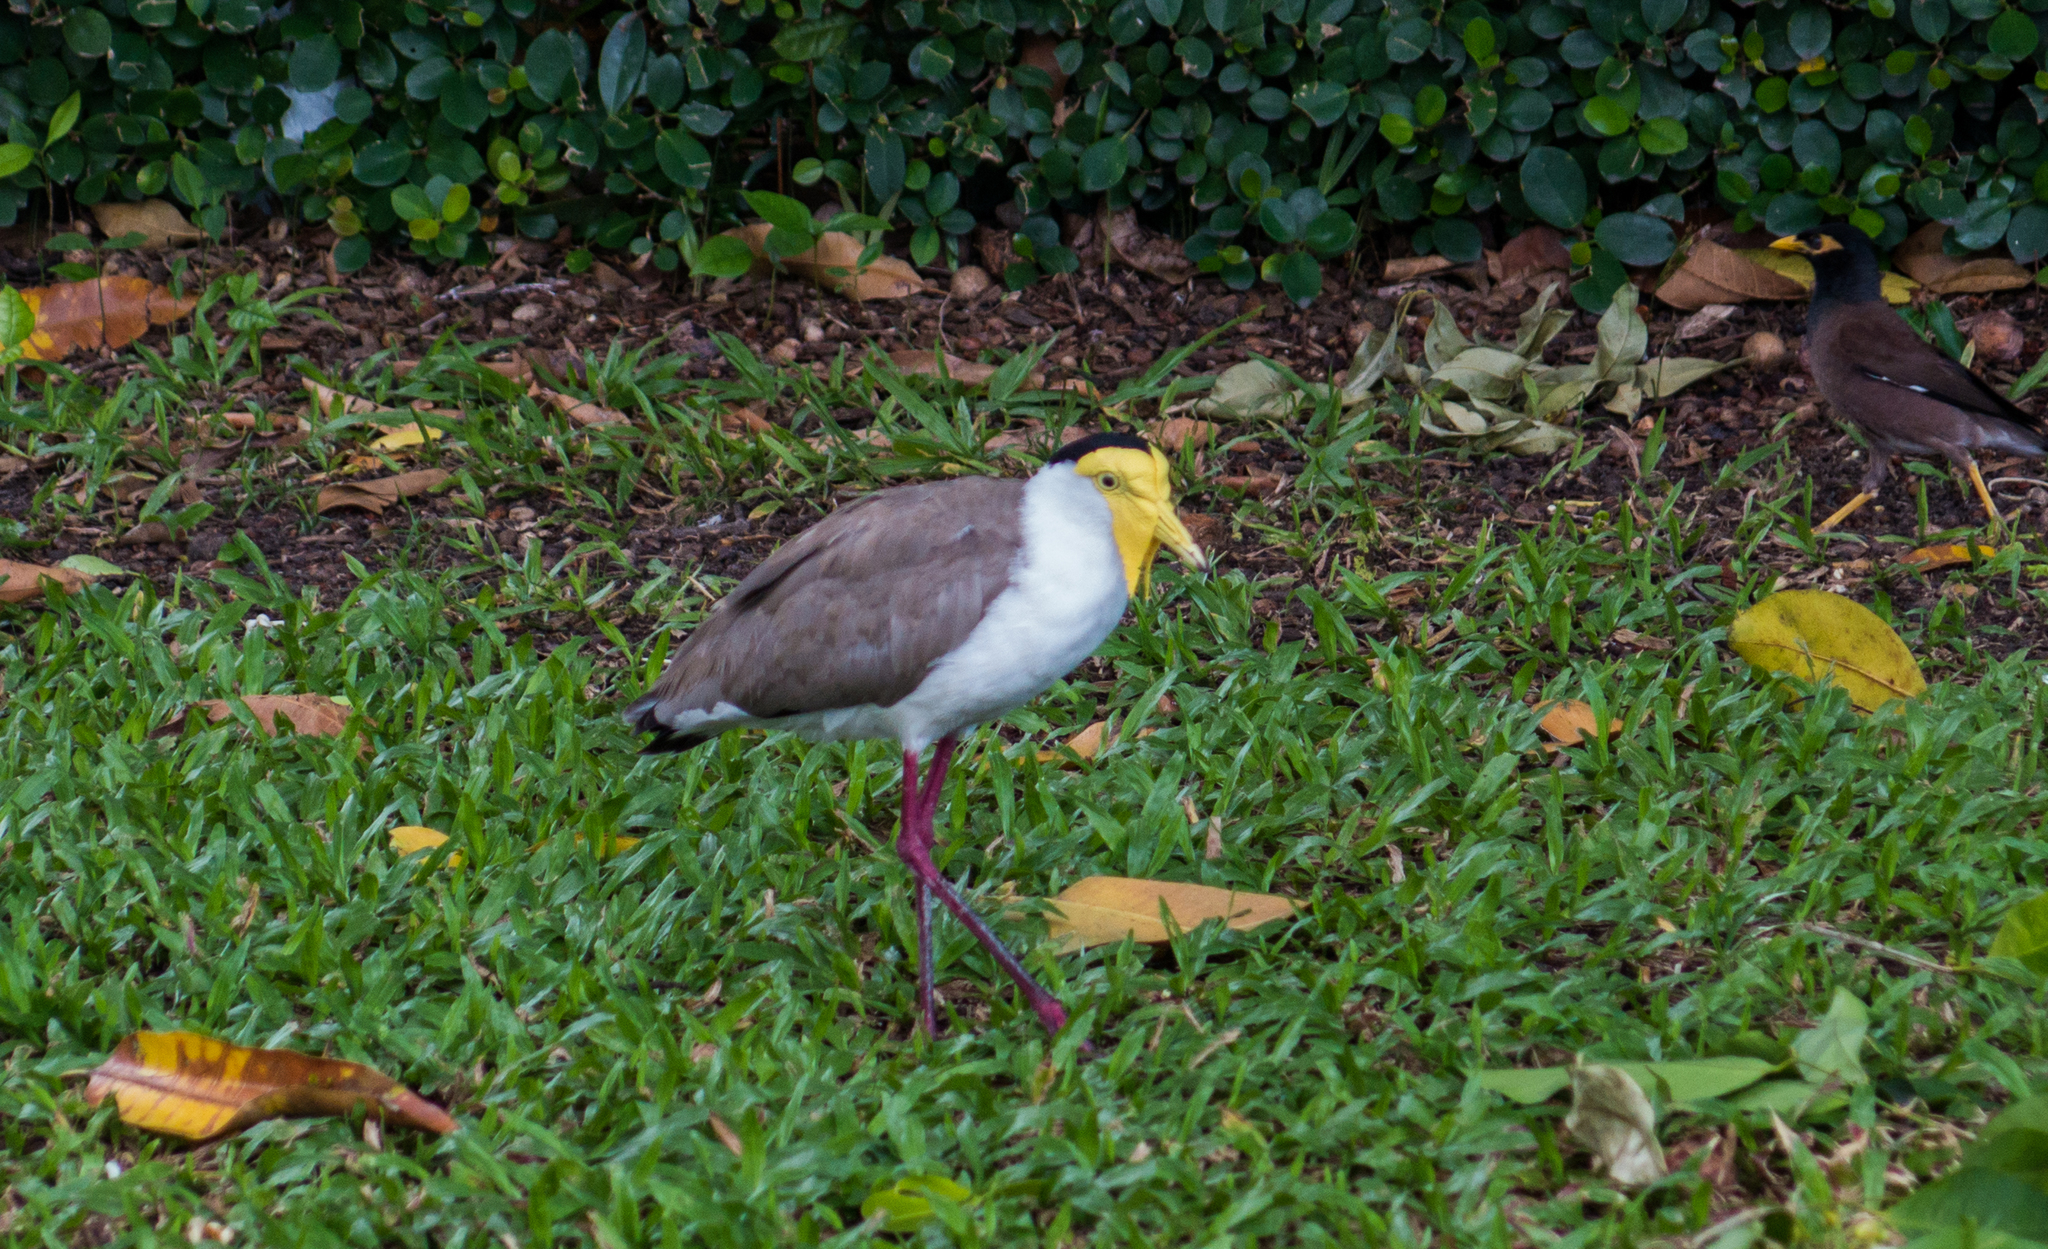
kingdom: Animalia
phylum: Chordata
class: Aves
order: Charadriiformes
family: Charadriidae
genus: Vanellus
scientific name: Vanellus miles
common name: Masked lapwing
